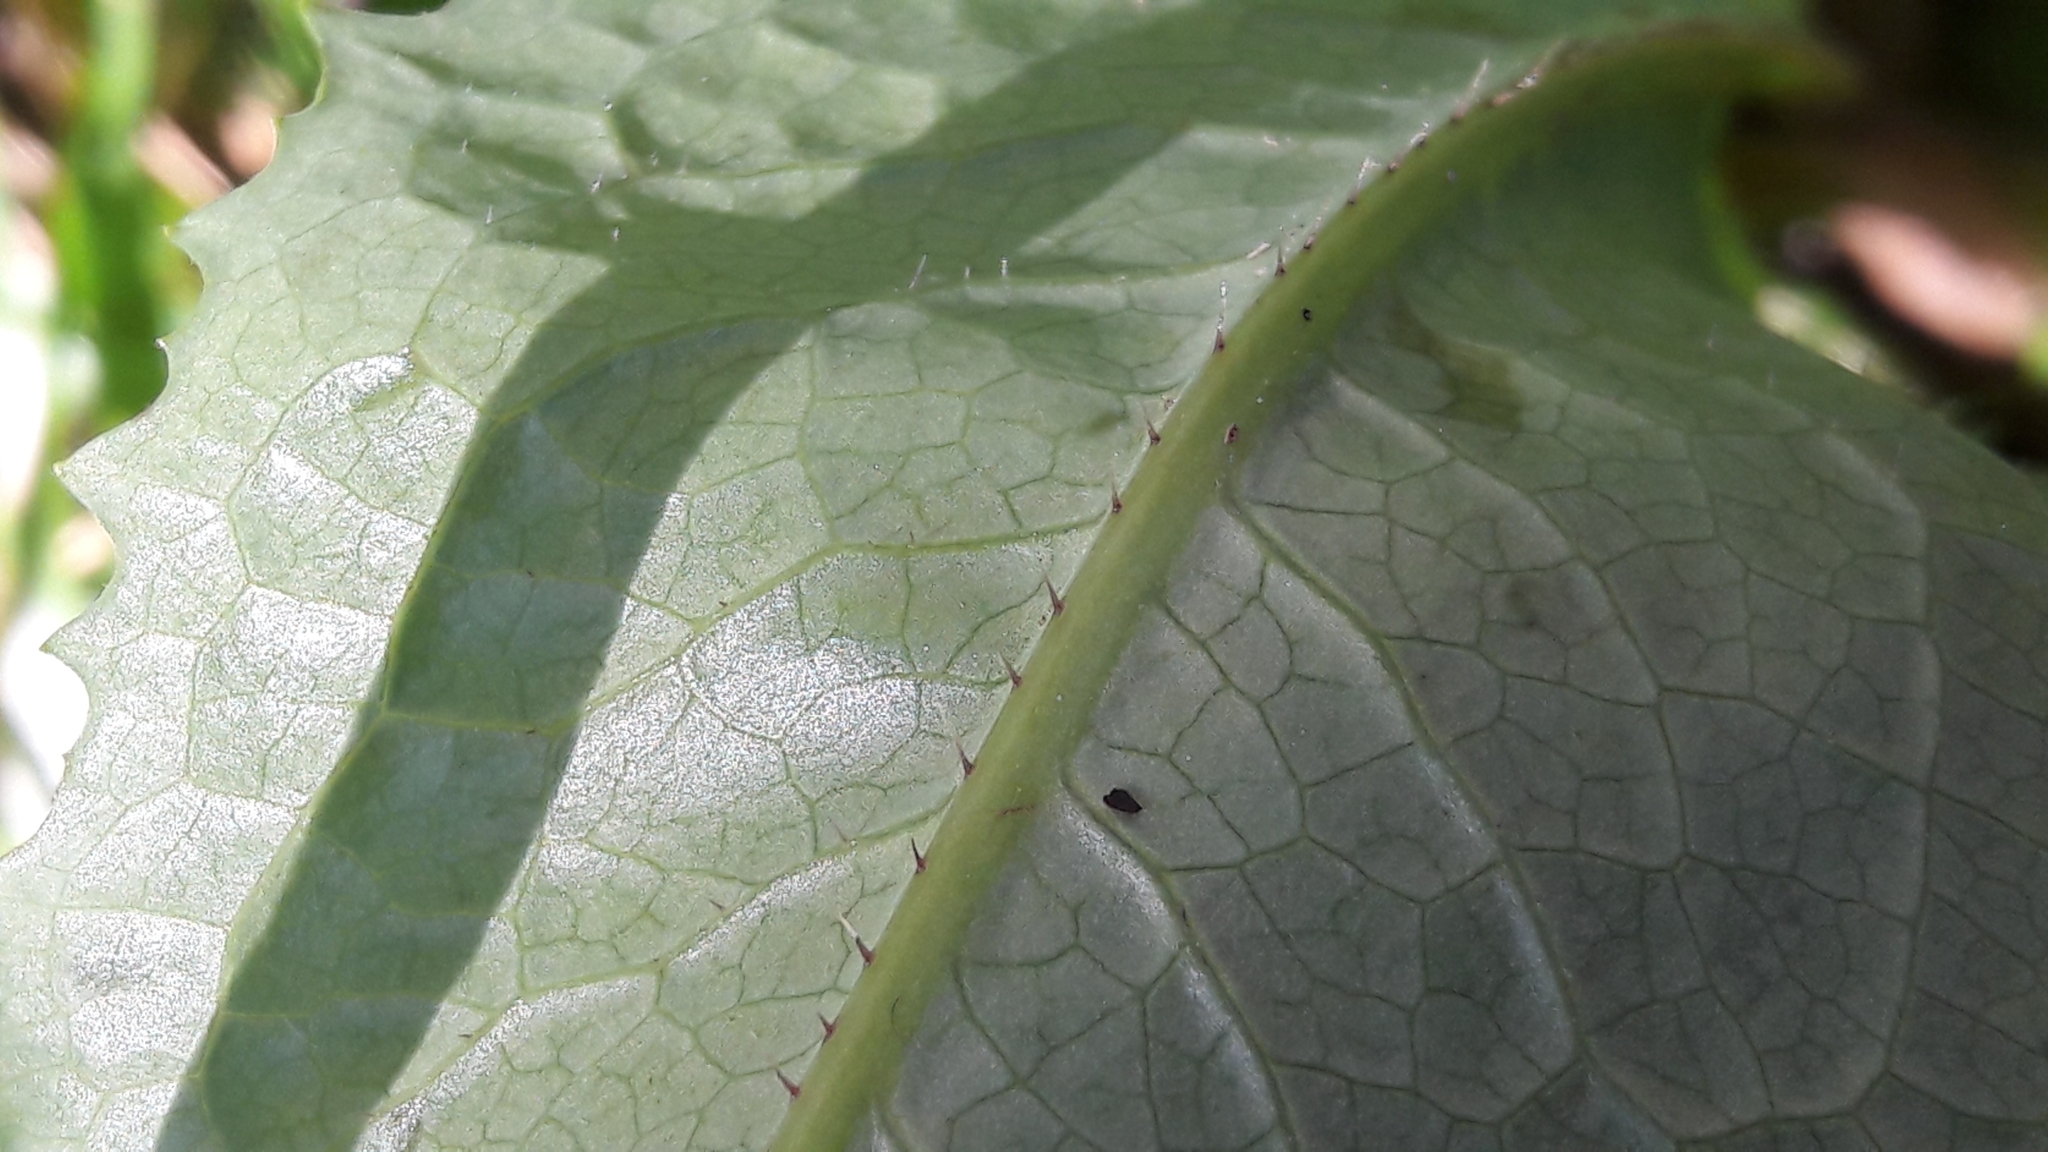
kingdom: Plantae
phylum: Tracheophyta
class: Magnoliopsida
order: Asterales
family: Asteraceae
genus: Lactuca
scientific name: Lactuca serriola
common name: Prickly lettuce
